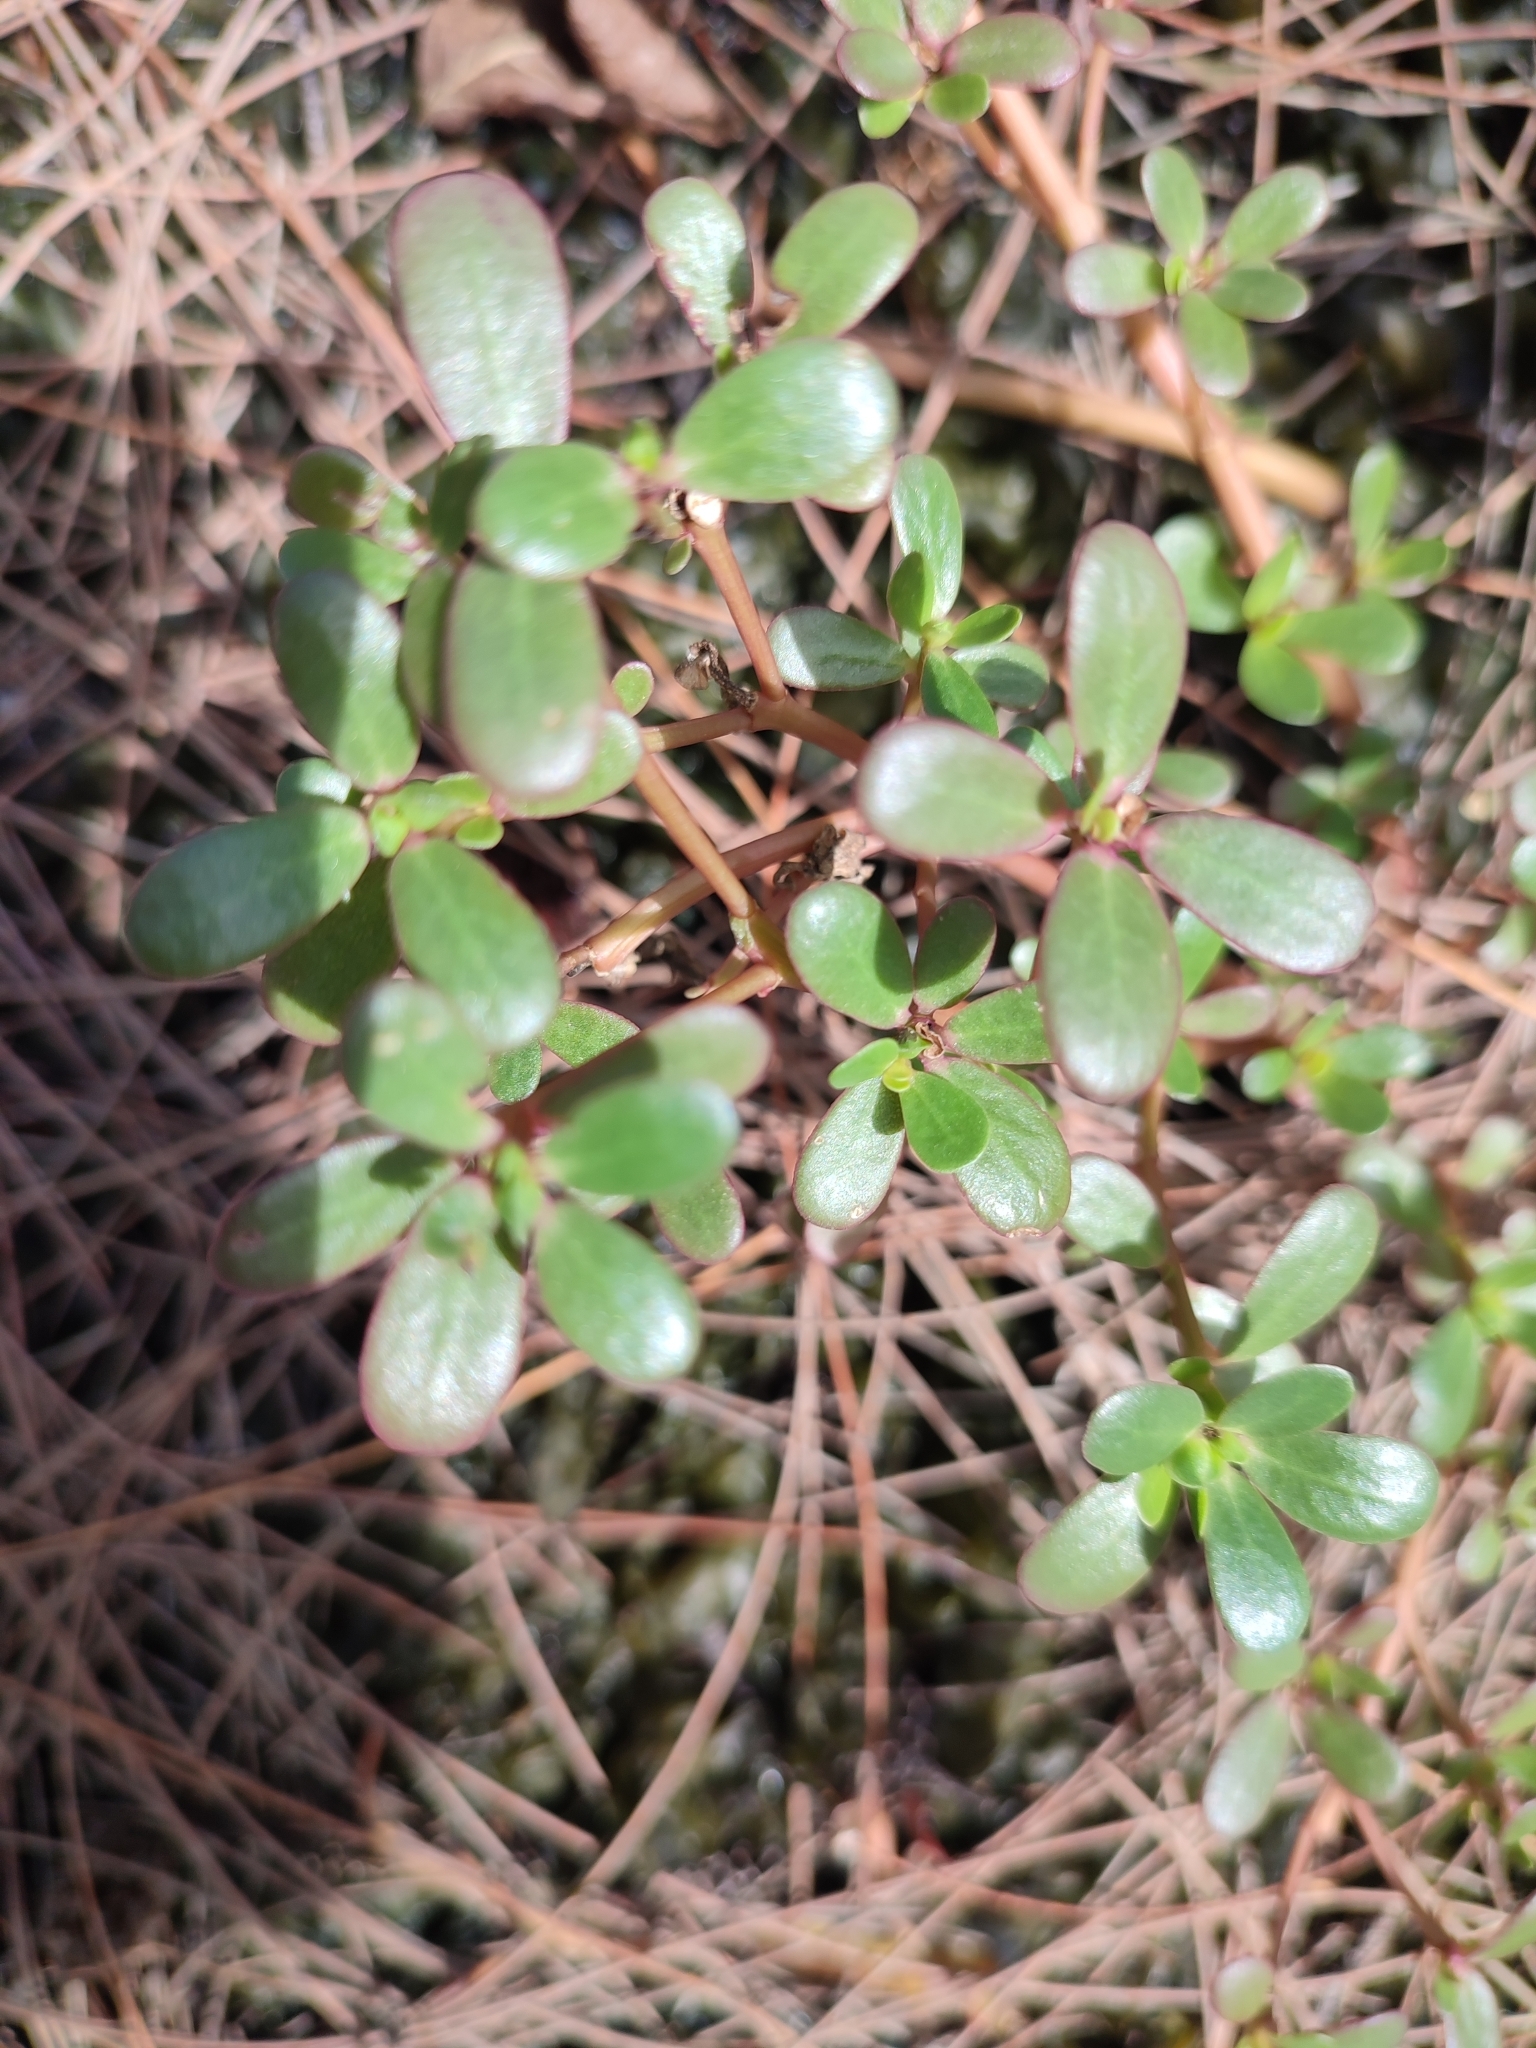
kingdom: Plantae
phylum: Tracheophyta
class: Magnoliopsida
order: Caryophyllales
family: Portulacaceae
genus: Portulaca
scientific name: Portulaca oleracea
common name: Common purslane
